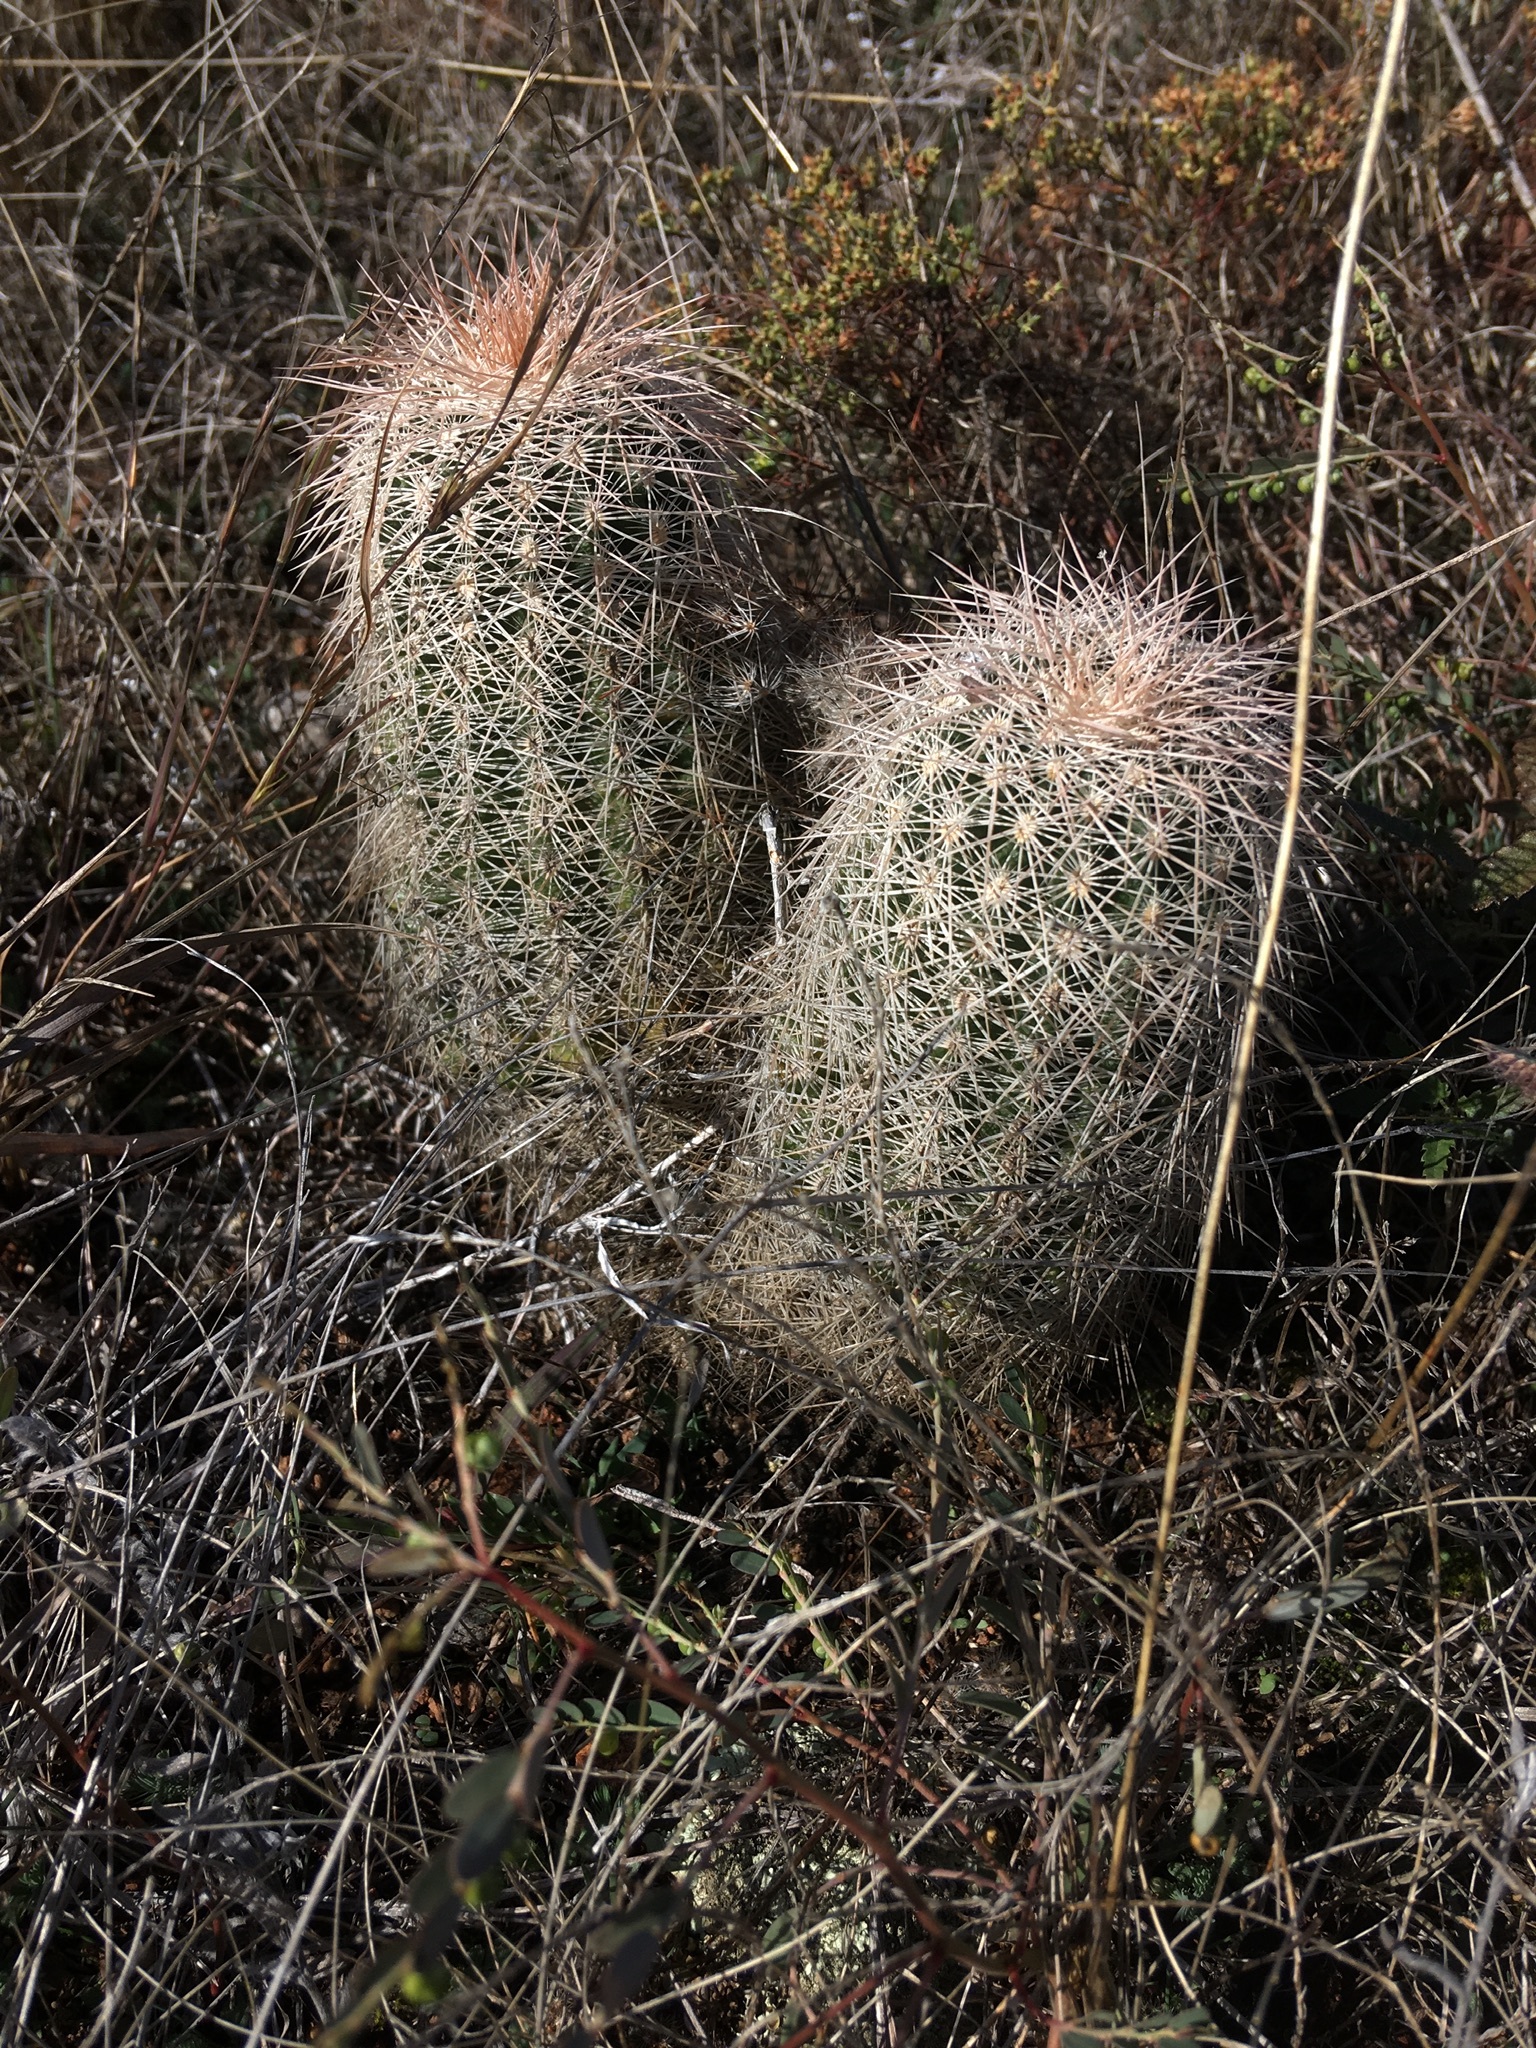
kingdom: Plantae
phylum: Tracheophyta
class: Magnoliopsida
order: Caryophyllales
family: Cactaceae
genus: Echinocereus
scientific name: Echinocereus reichenbachii
